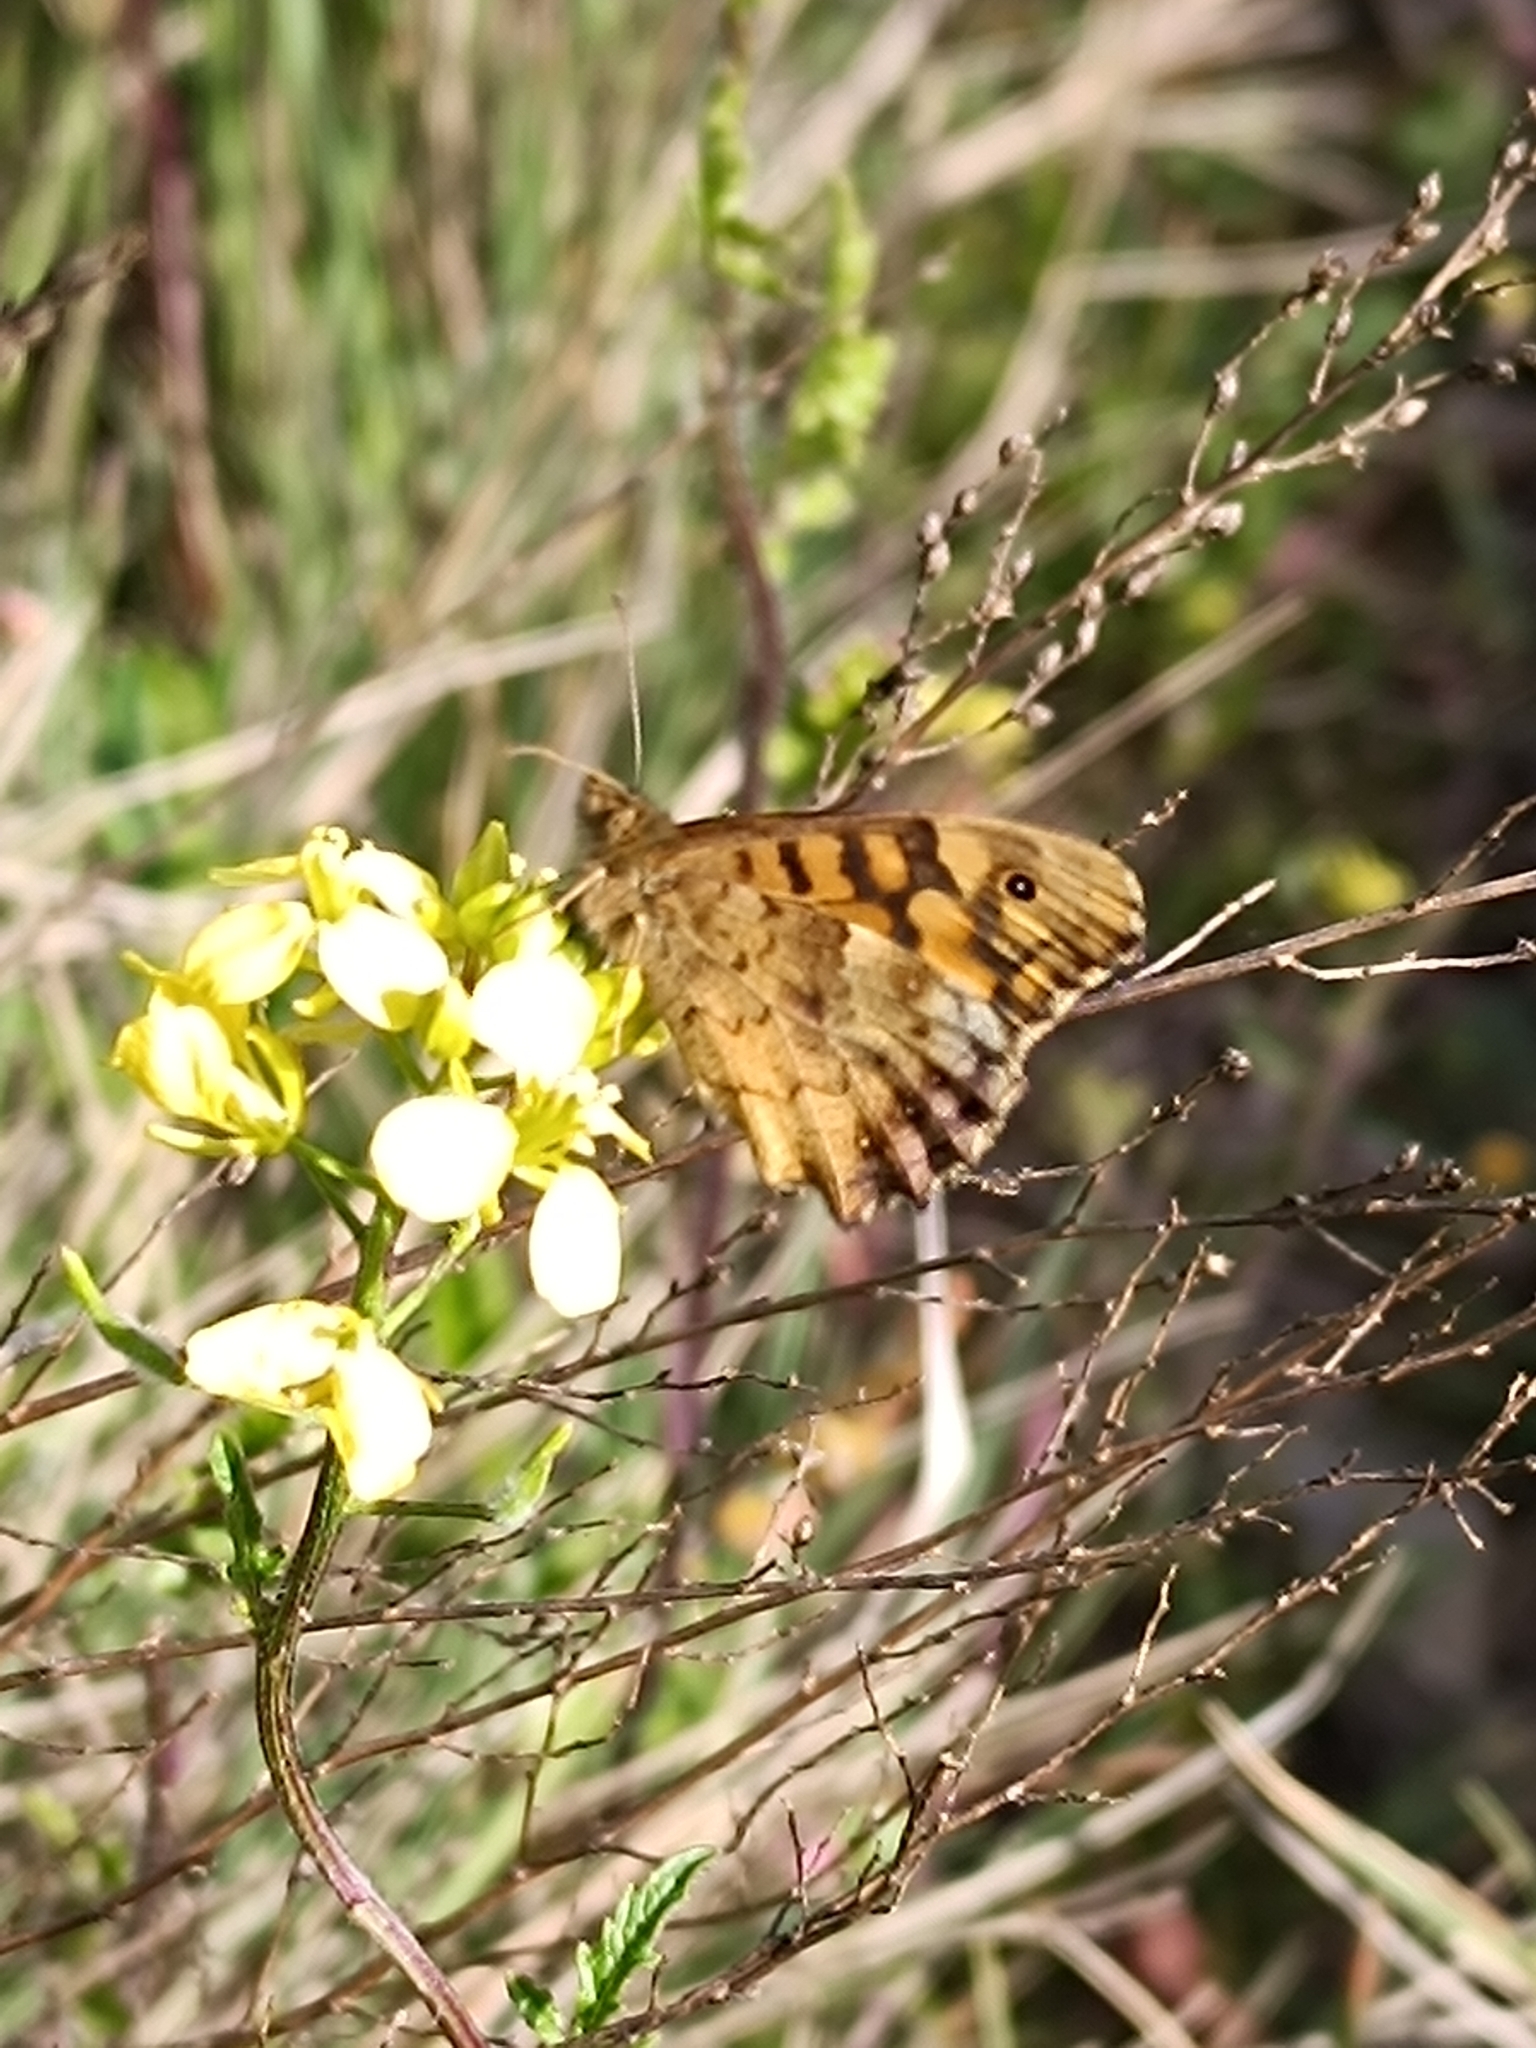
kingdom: Animalia
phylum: Arthropoda
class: Insecta
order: Lepidoptera
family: Nymphalidae
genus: Pararge
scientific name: Pararge aegeria
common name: Speckled wood
